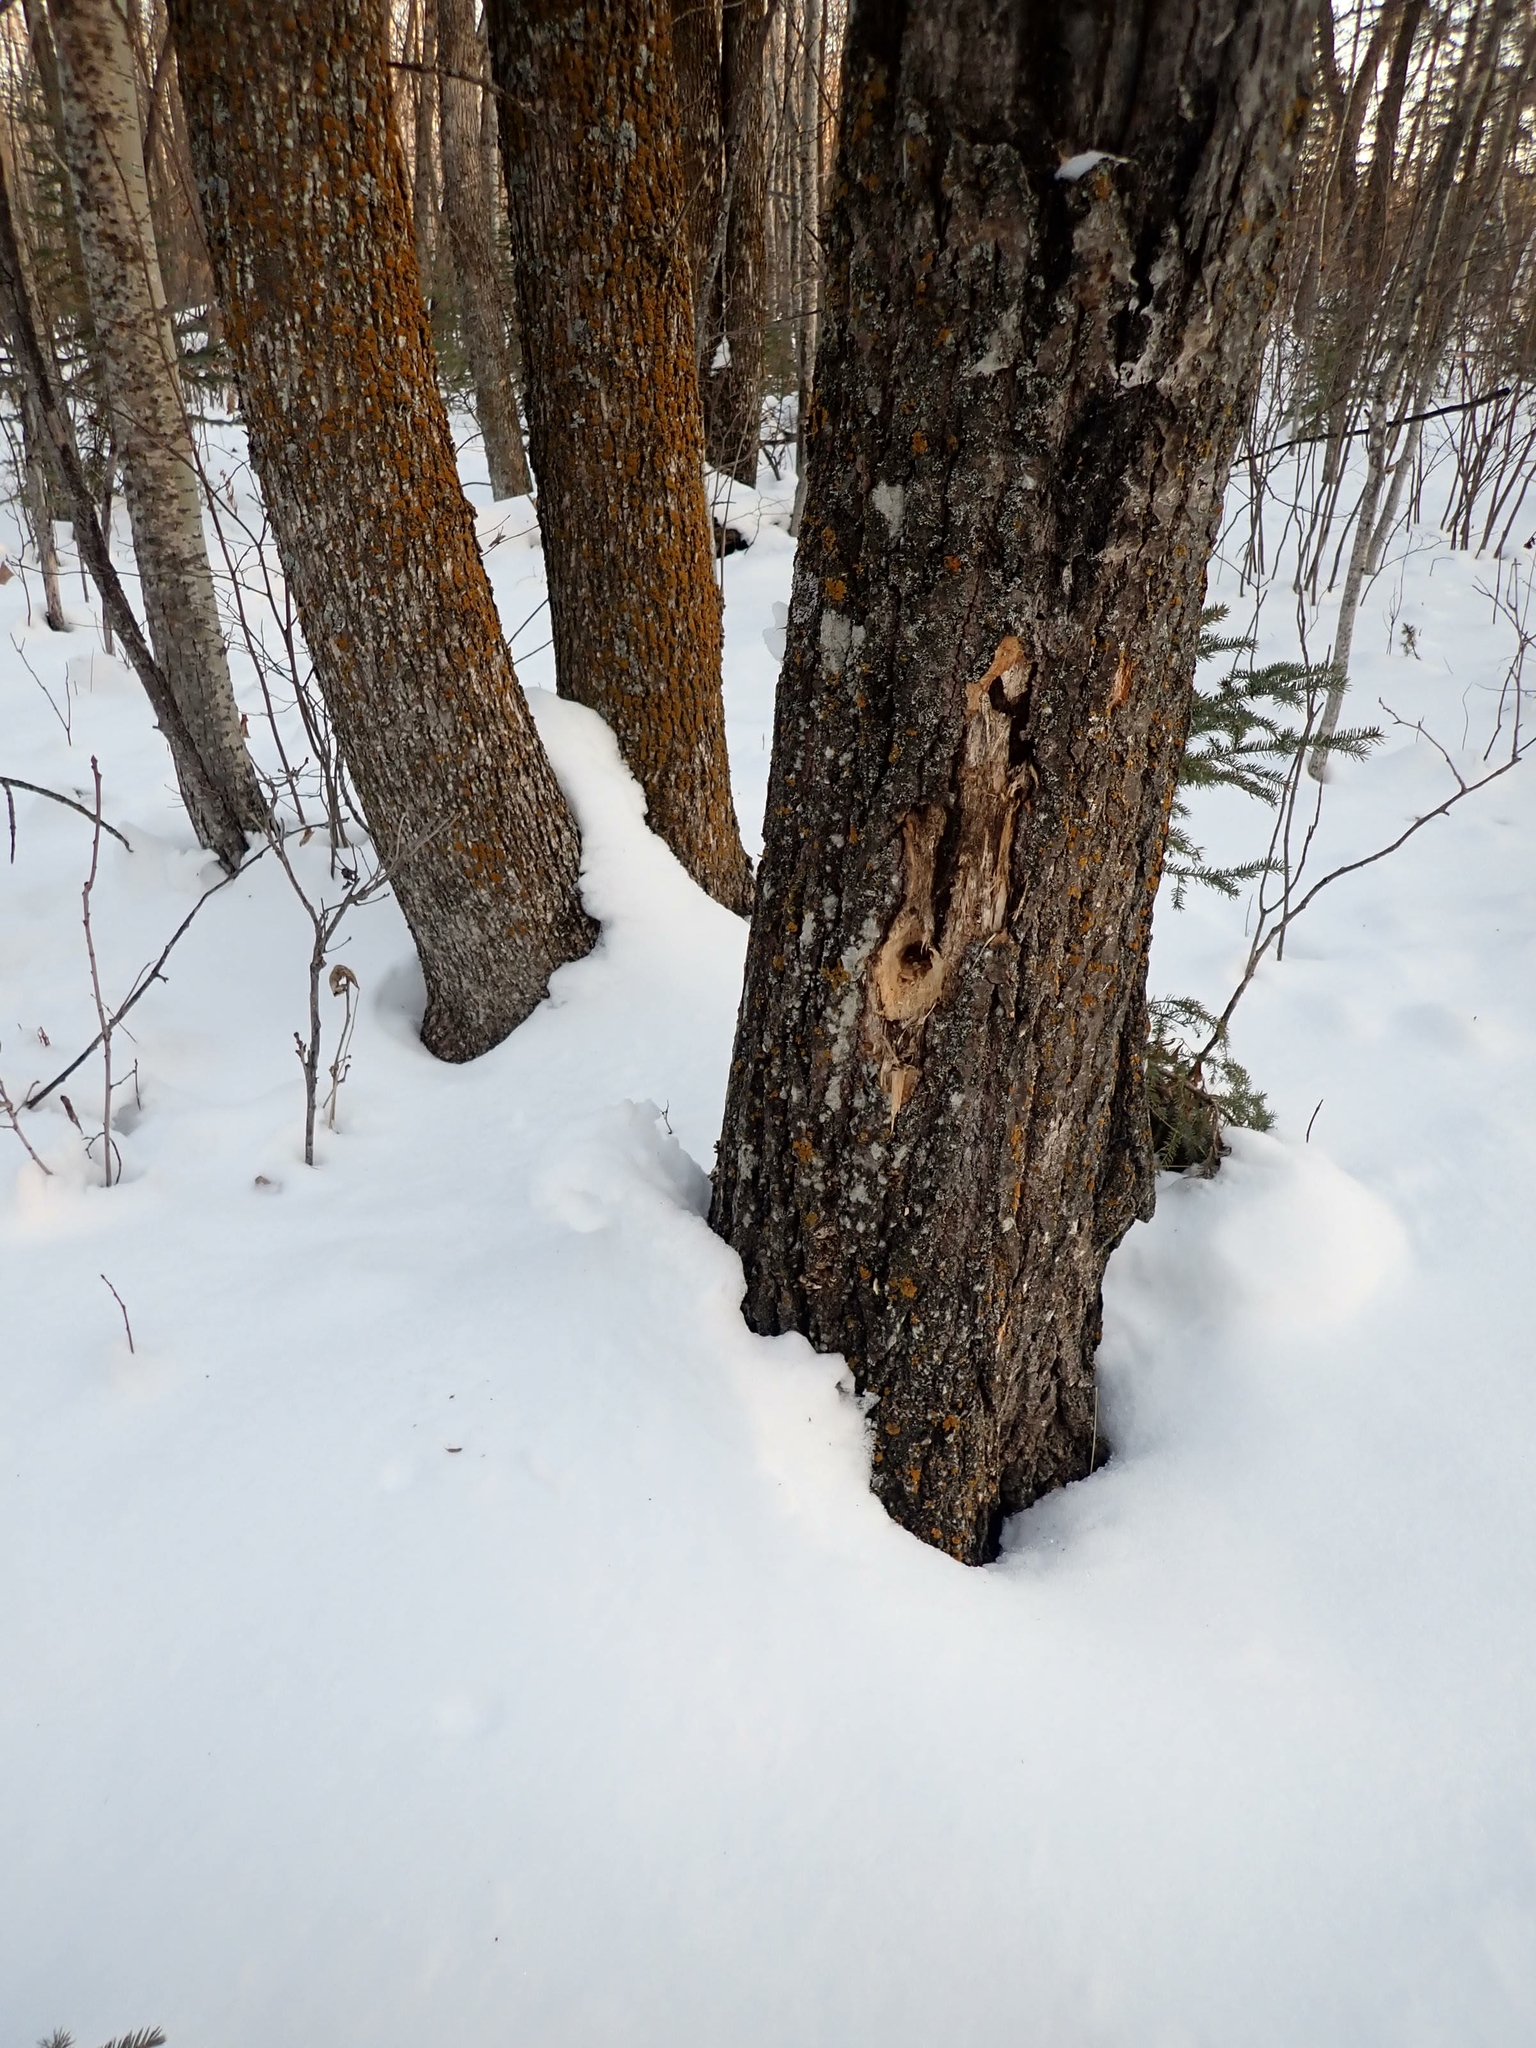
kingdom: Animalia
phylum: Chordata
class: Aves
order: Piciformes
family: Picidae
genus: Dryocopus
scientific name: Dryocopus pileatus
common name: Pileated woodpecker
